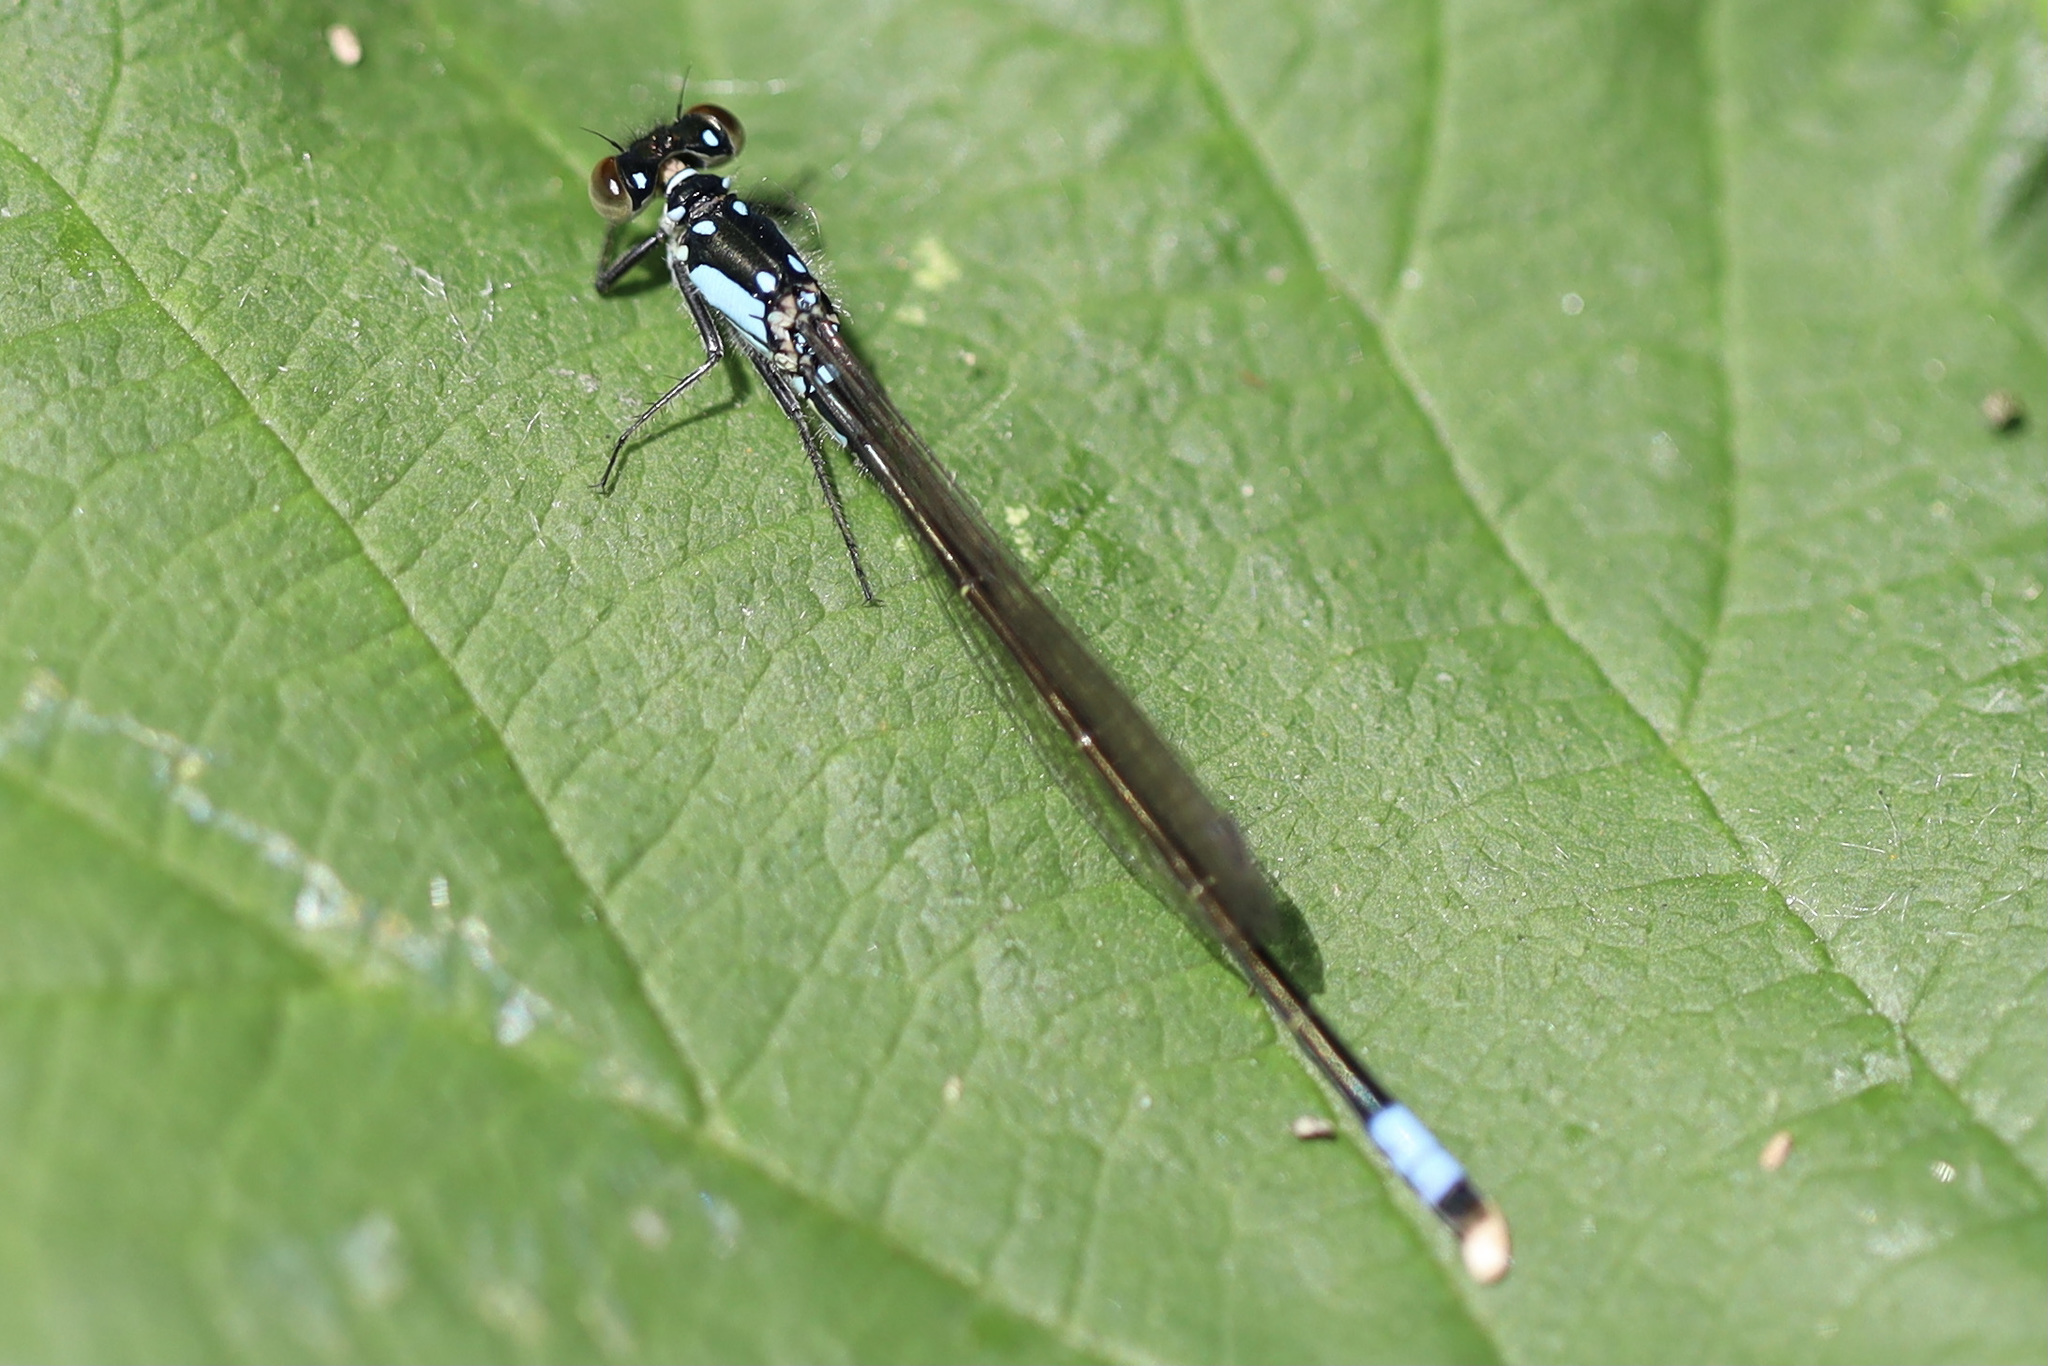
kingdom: Animalia
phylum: Arthropoda
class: Insecta
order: Odonata
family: Coenagrionidae
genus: Ischnura
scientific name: Ischnura cervula
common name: Pacific forktail
